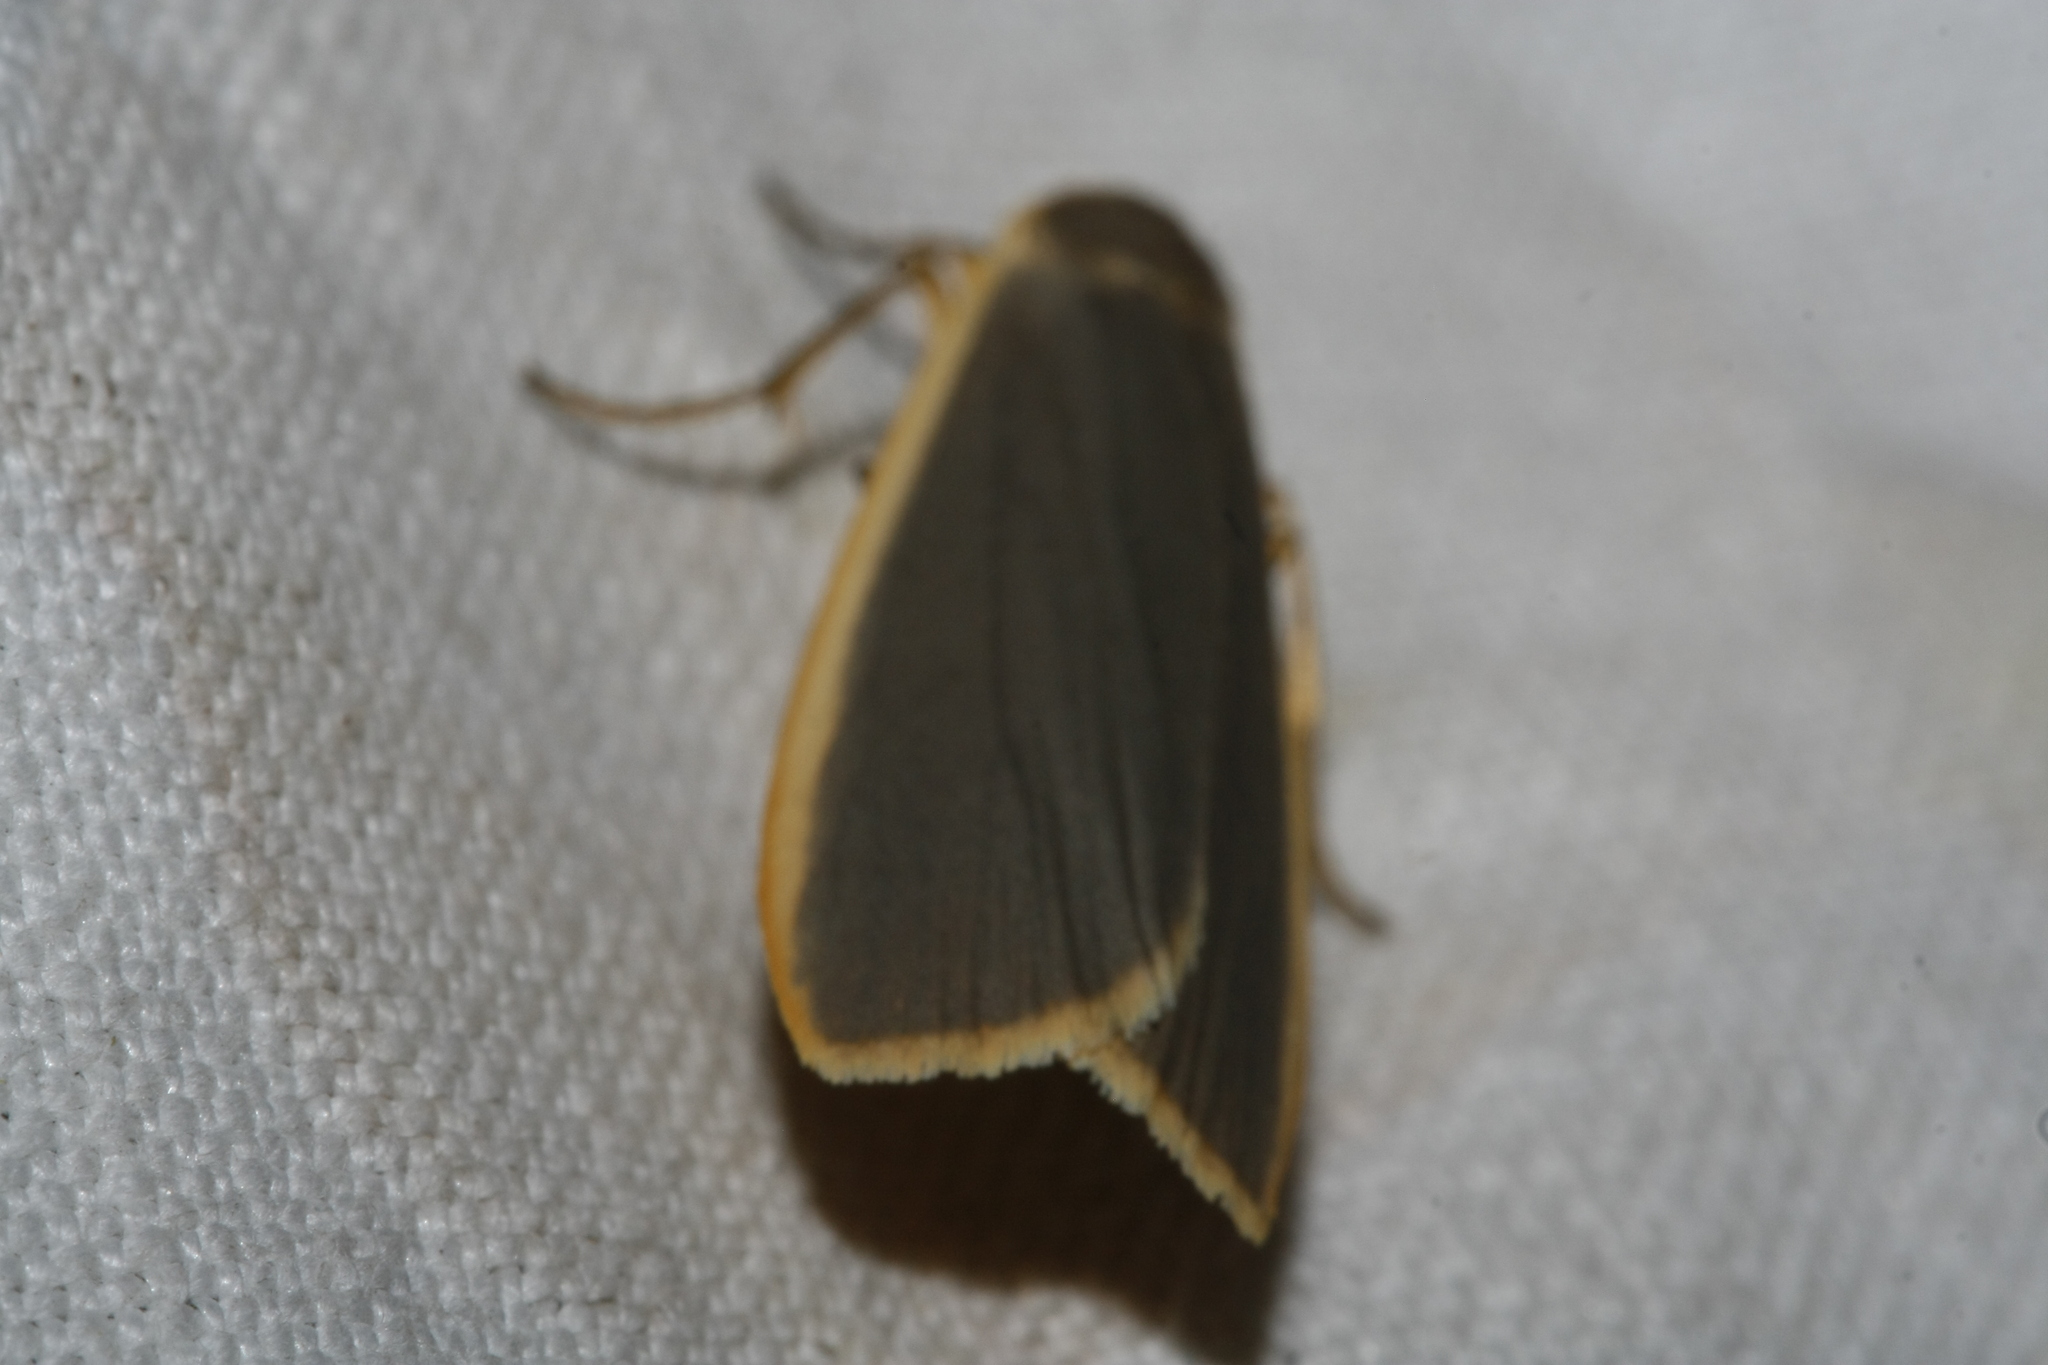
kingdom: Animalia
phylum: Arthropoda
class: Insecta
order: Lepidoptera
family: Erebidae
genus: Nyea
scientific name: Nyea lurideola
